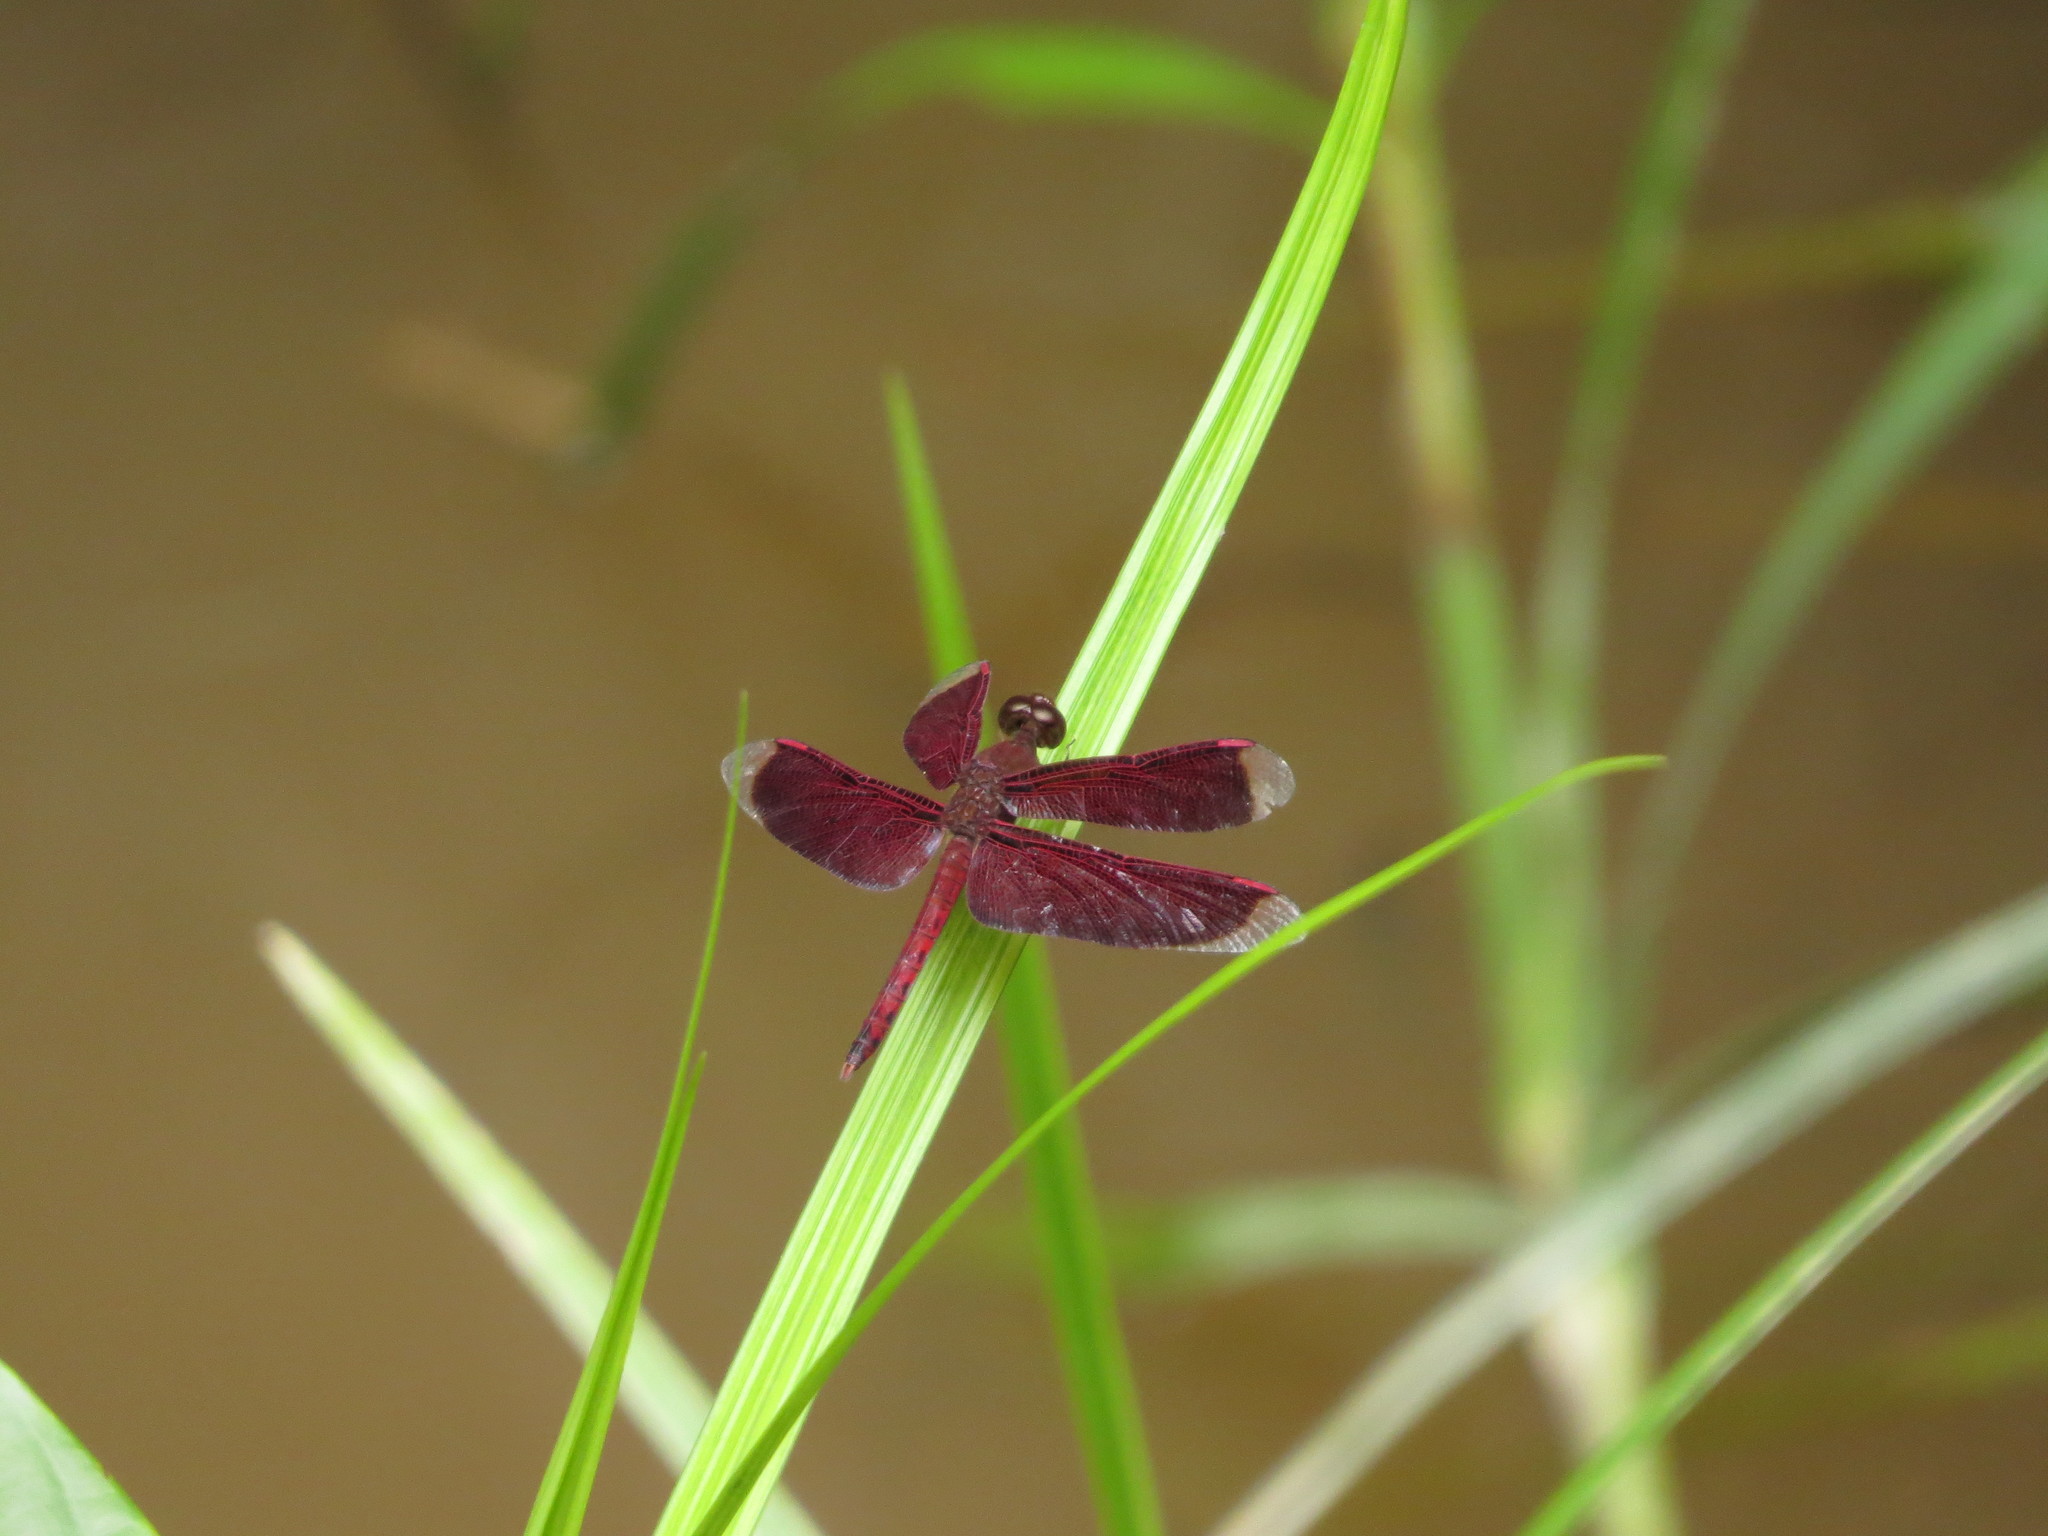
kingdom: Animalia
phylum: Arthropoda
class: Insecta
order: Odonata
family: Libellulidae
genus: Neurothemis
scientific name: Neurothemis fluctuans
